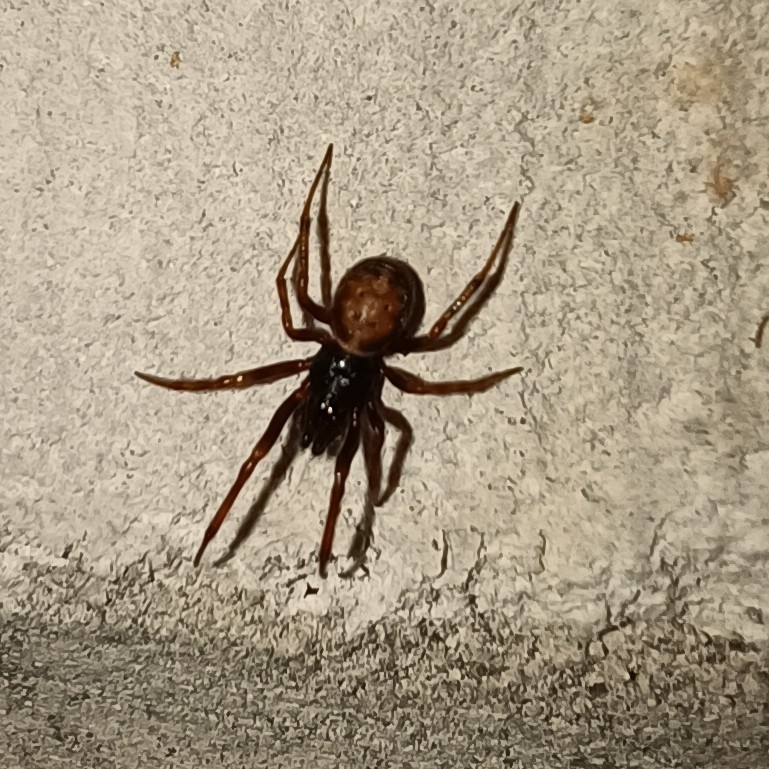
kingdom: Animalia
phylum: Arthropoda
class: Arachnida
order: Araneae
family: Theridiidae
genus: Steatoda
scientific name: Steatoda bipunctata
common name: False widow
